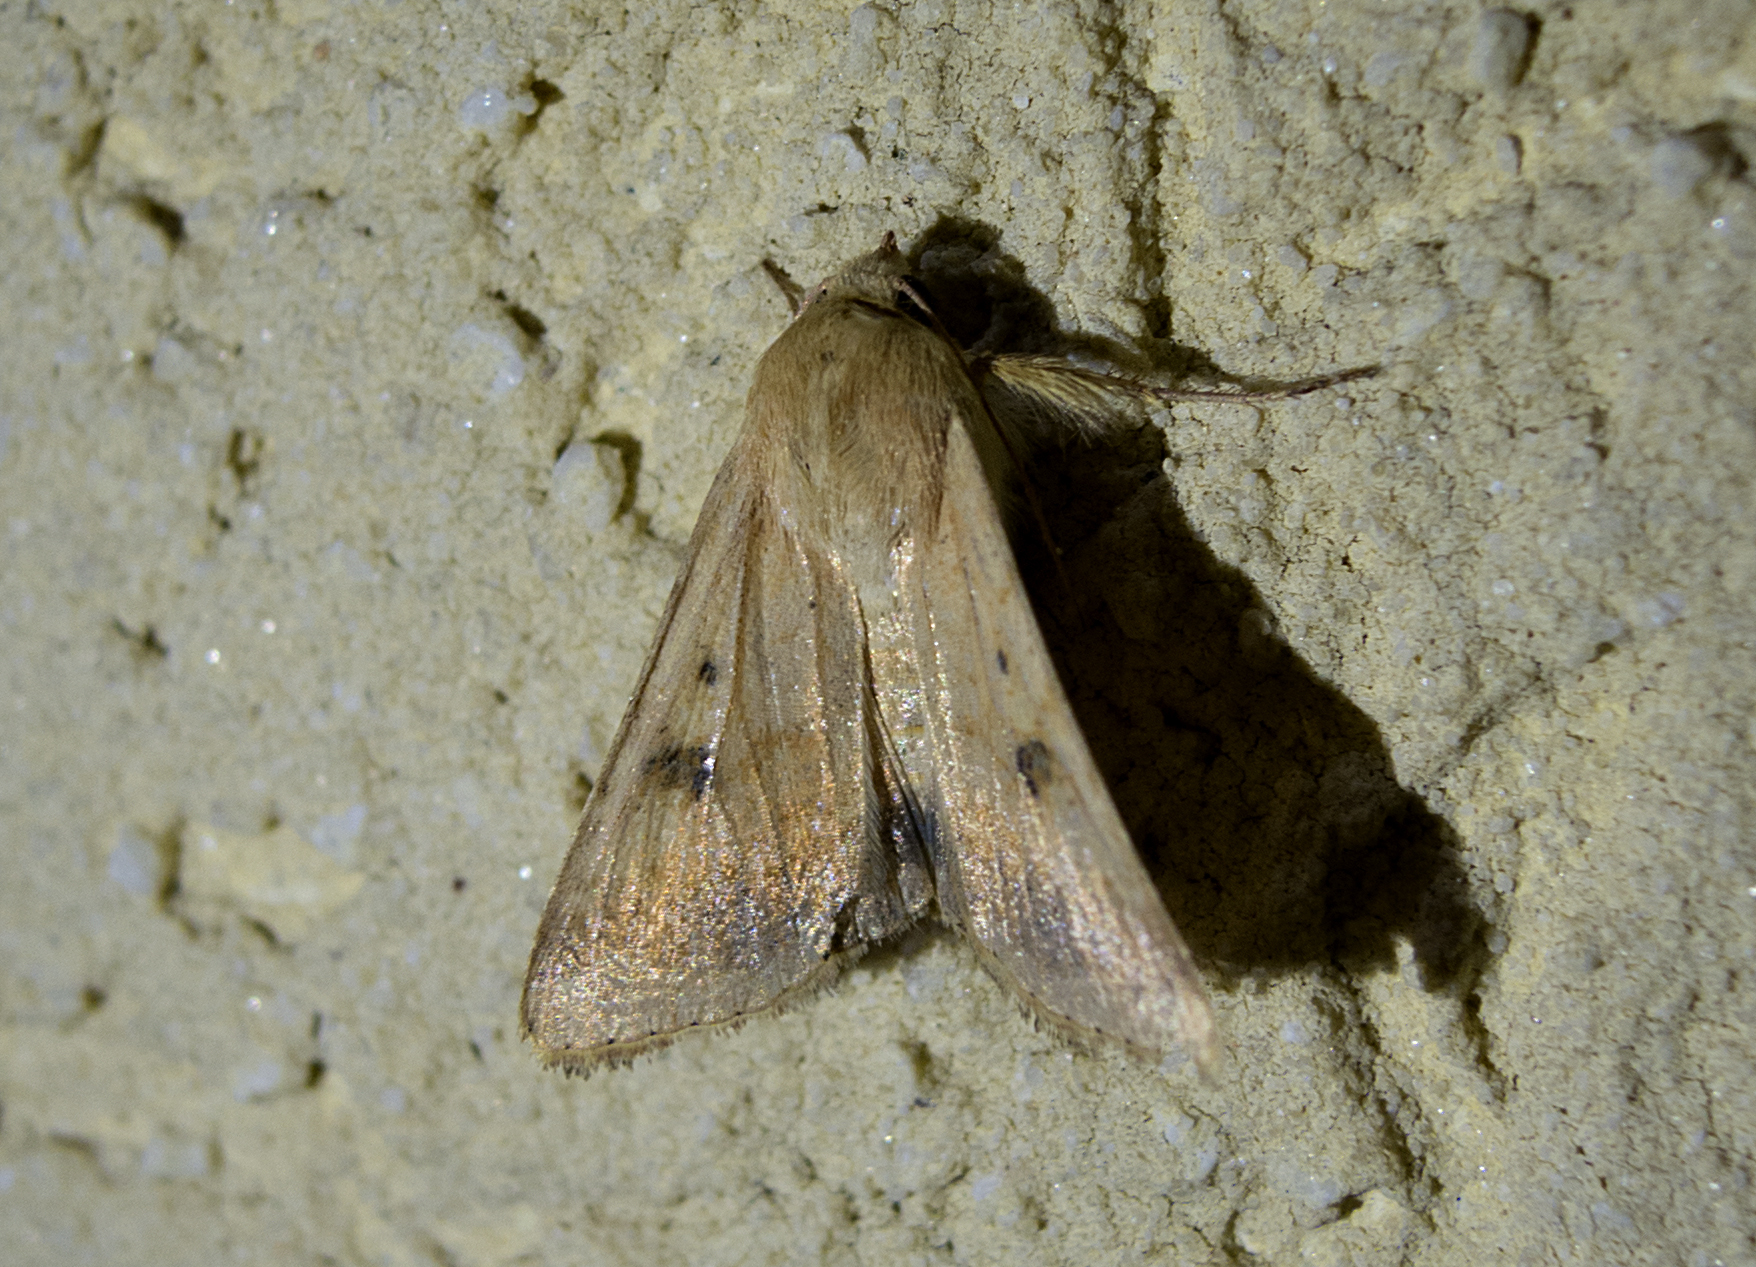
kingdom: Animalia
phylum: Arthropoda
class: Insecta
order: Lepidoptera
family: Noctuidae
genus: Helicoverpa
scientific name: Helicoverpa armigera
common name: Cotton bollworm
